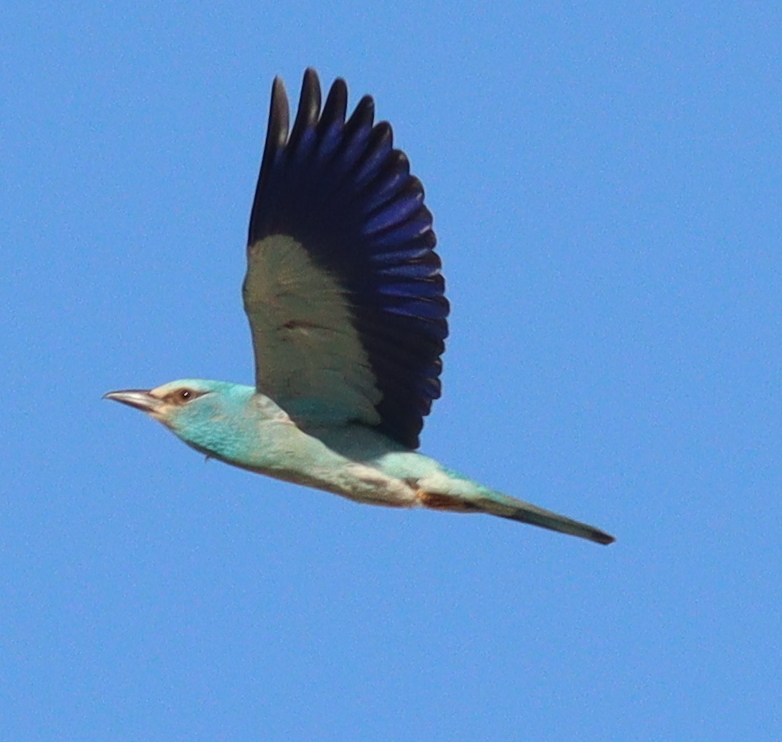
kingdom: Animalia
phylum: Chordata
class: Aves
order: Coraciiformes
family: Coraciidae
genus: Coracias
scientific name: Coracias garrulus
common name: European roller
